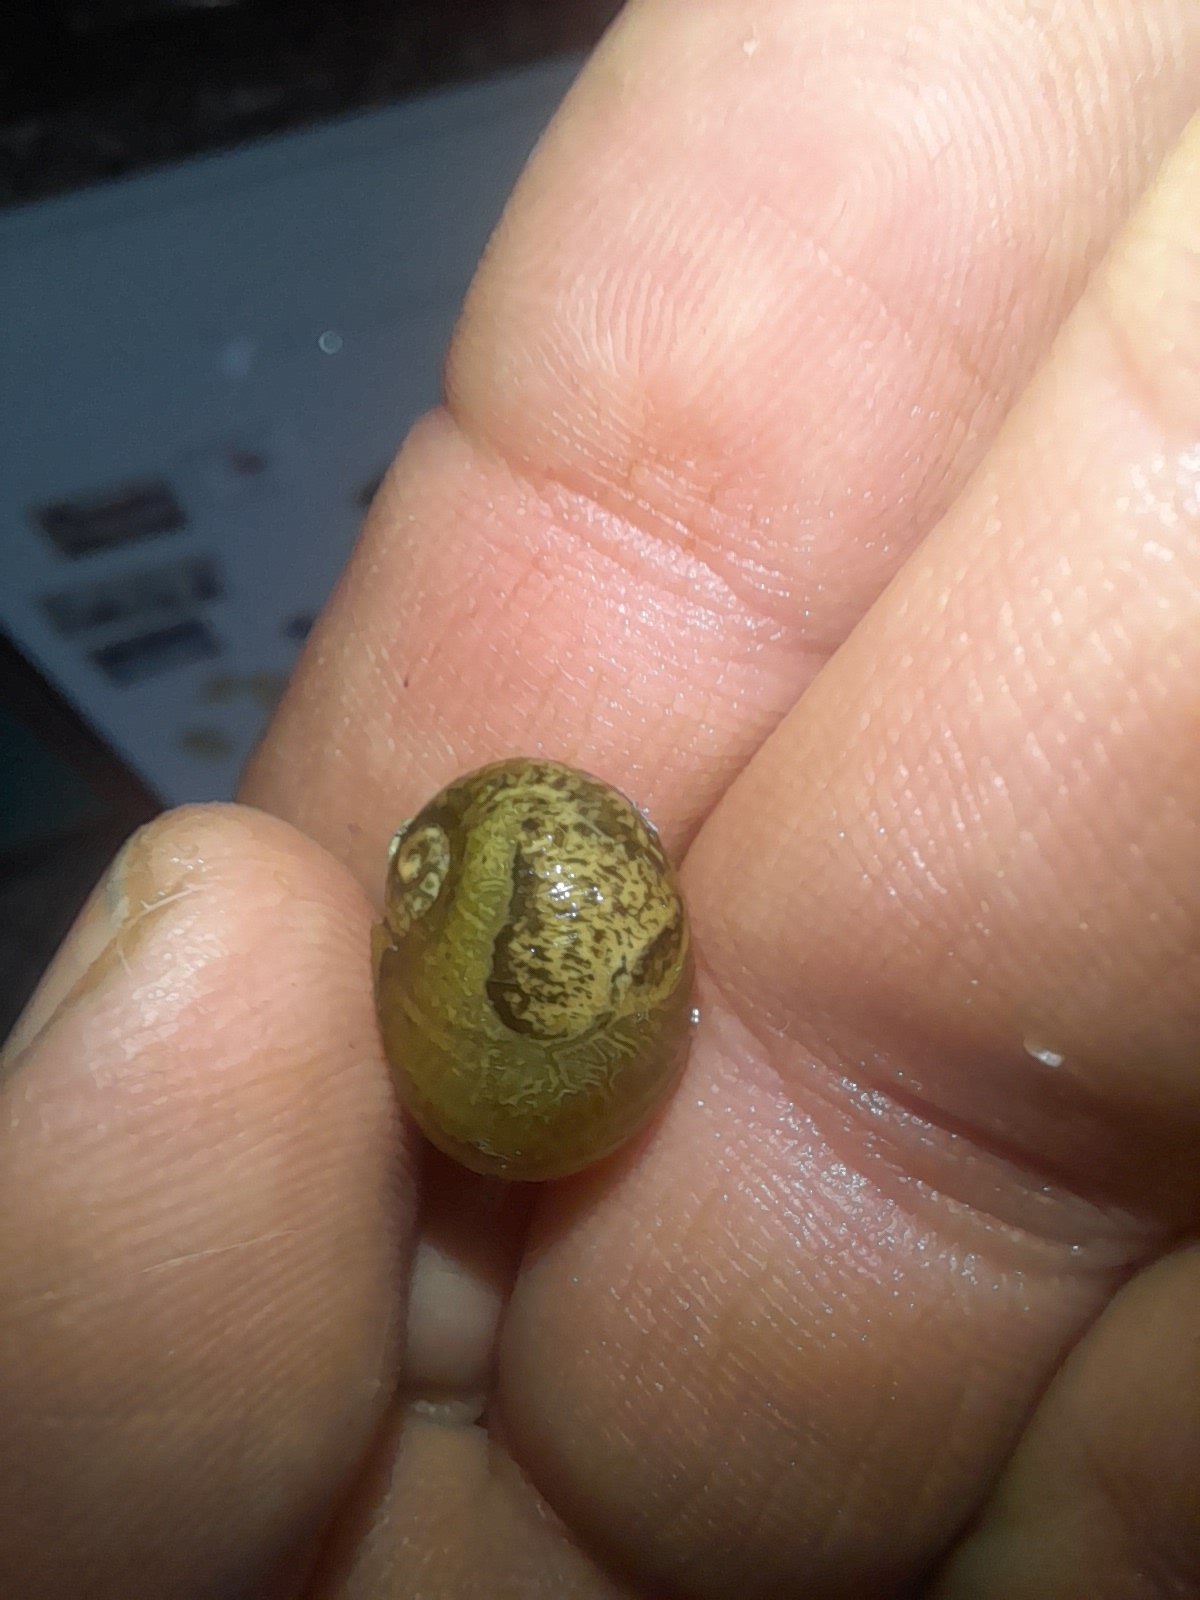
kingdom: Animalia
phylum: Mollusca
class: Gastropoda
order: Stylommatophora
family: Helicidae
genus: Cantareus
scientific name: Cantareus apertus
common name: Green gardensnail
